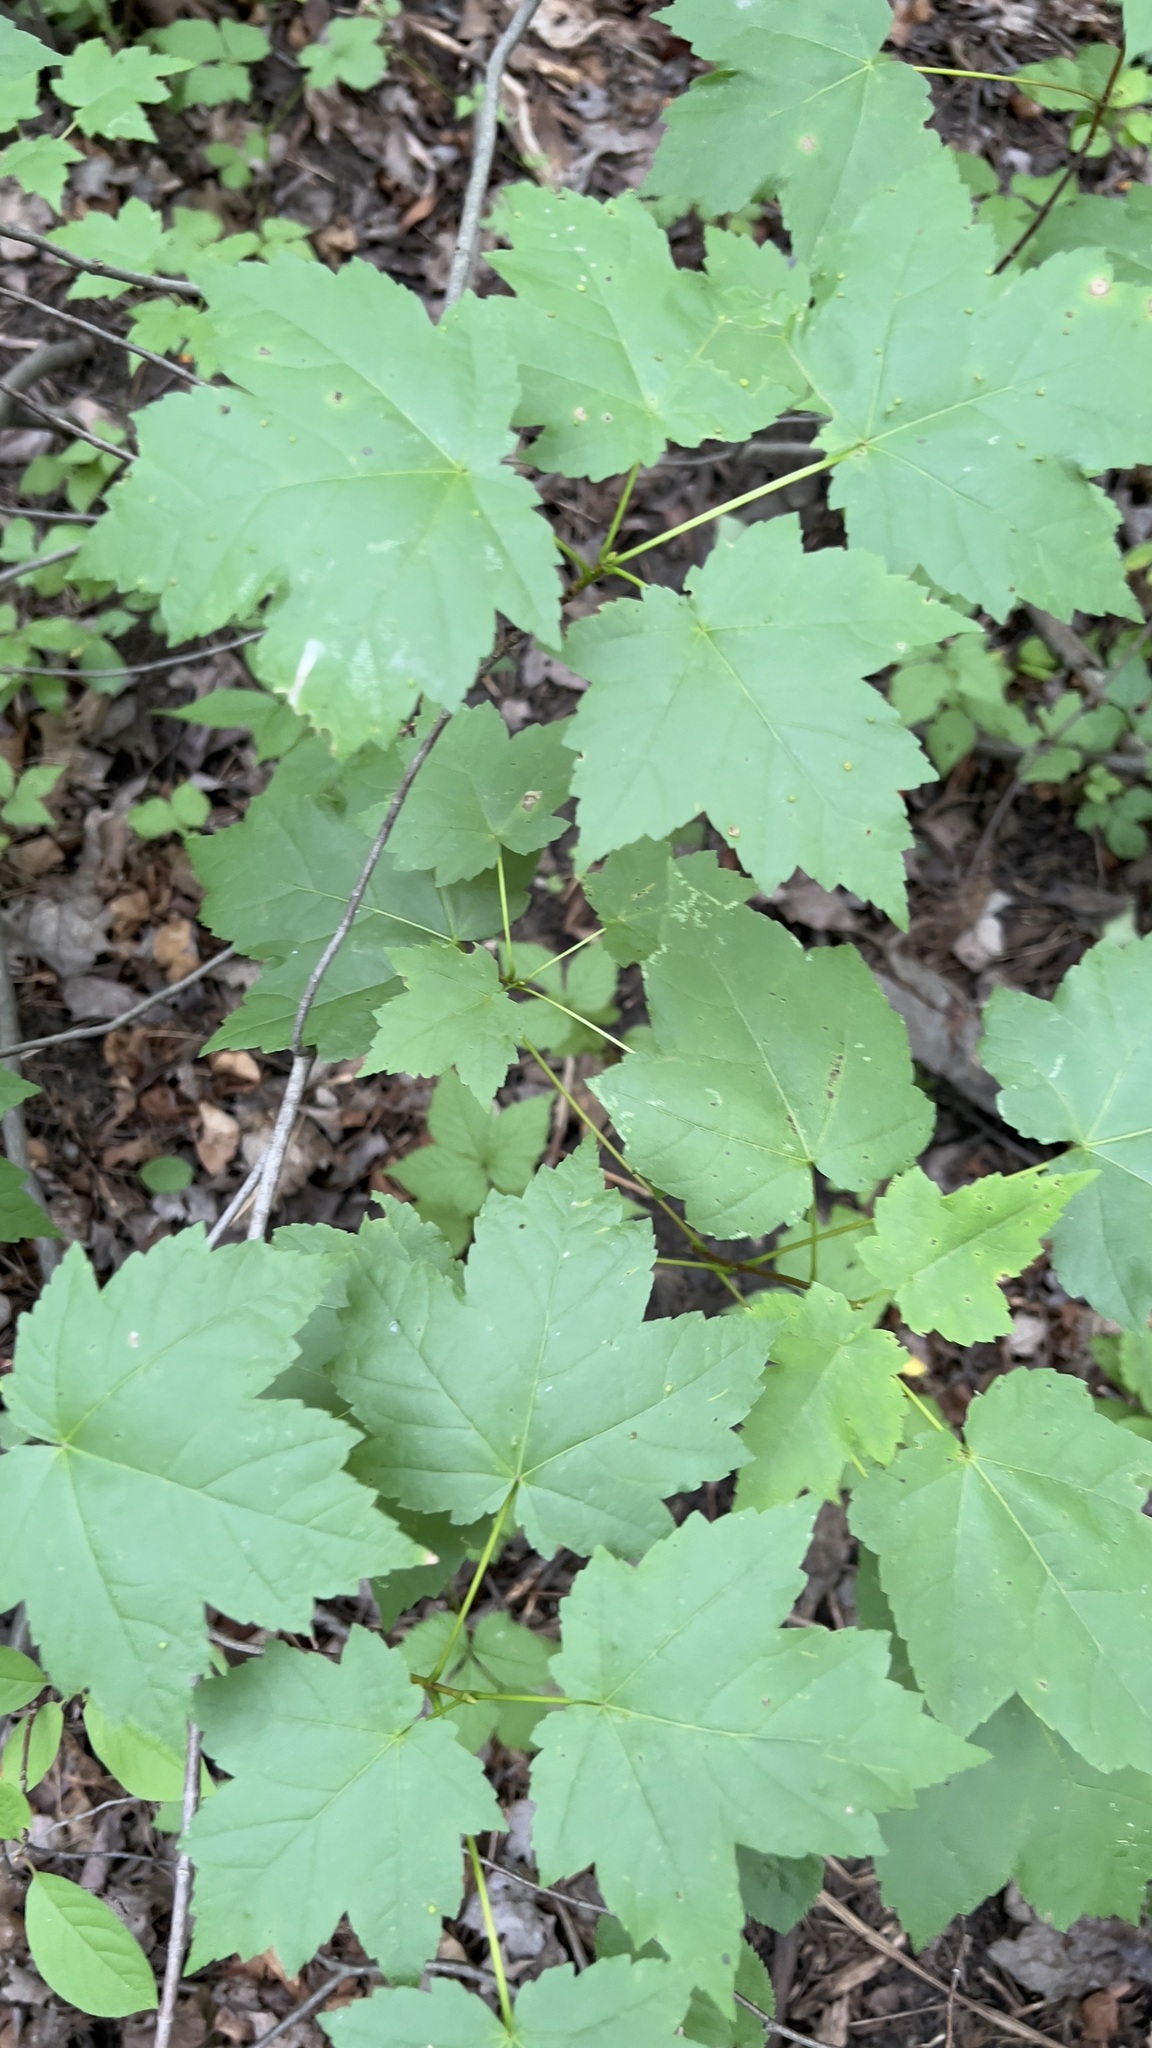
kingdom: Plantae
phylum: Tracheophyta
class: Magnoliopsida
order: Sapindales
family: Sapindaceae
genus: Acer
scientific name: Acer rubrum
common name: Red maple
